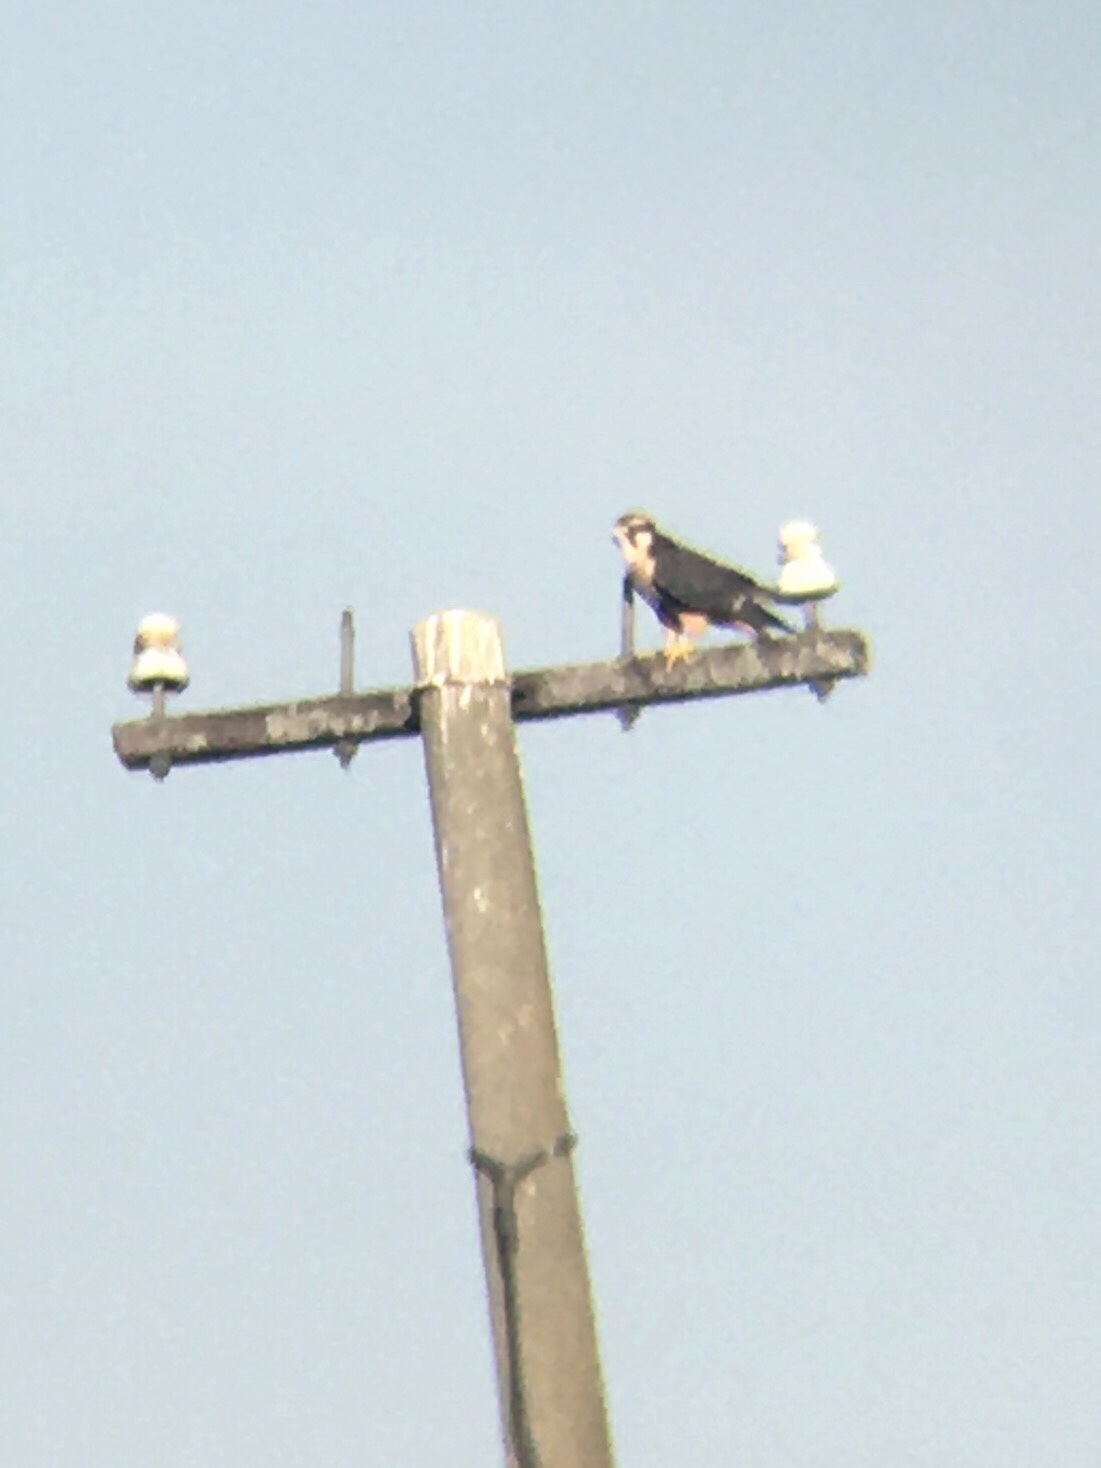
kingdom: Animalia
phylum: Chordata
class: Aves
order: Falconiformes
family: Falconidae
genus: Falco
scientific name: Falco femoralis
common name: Aplomado falcon
